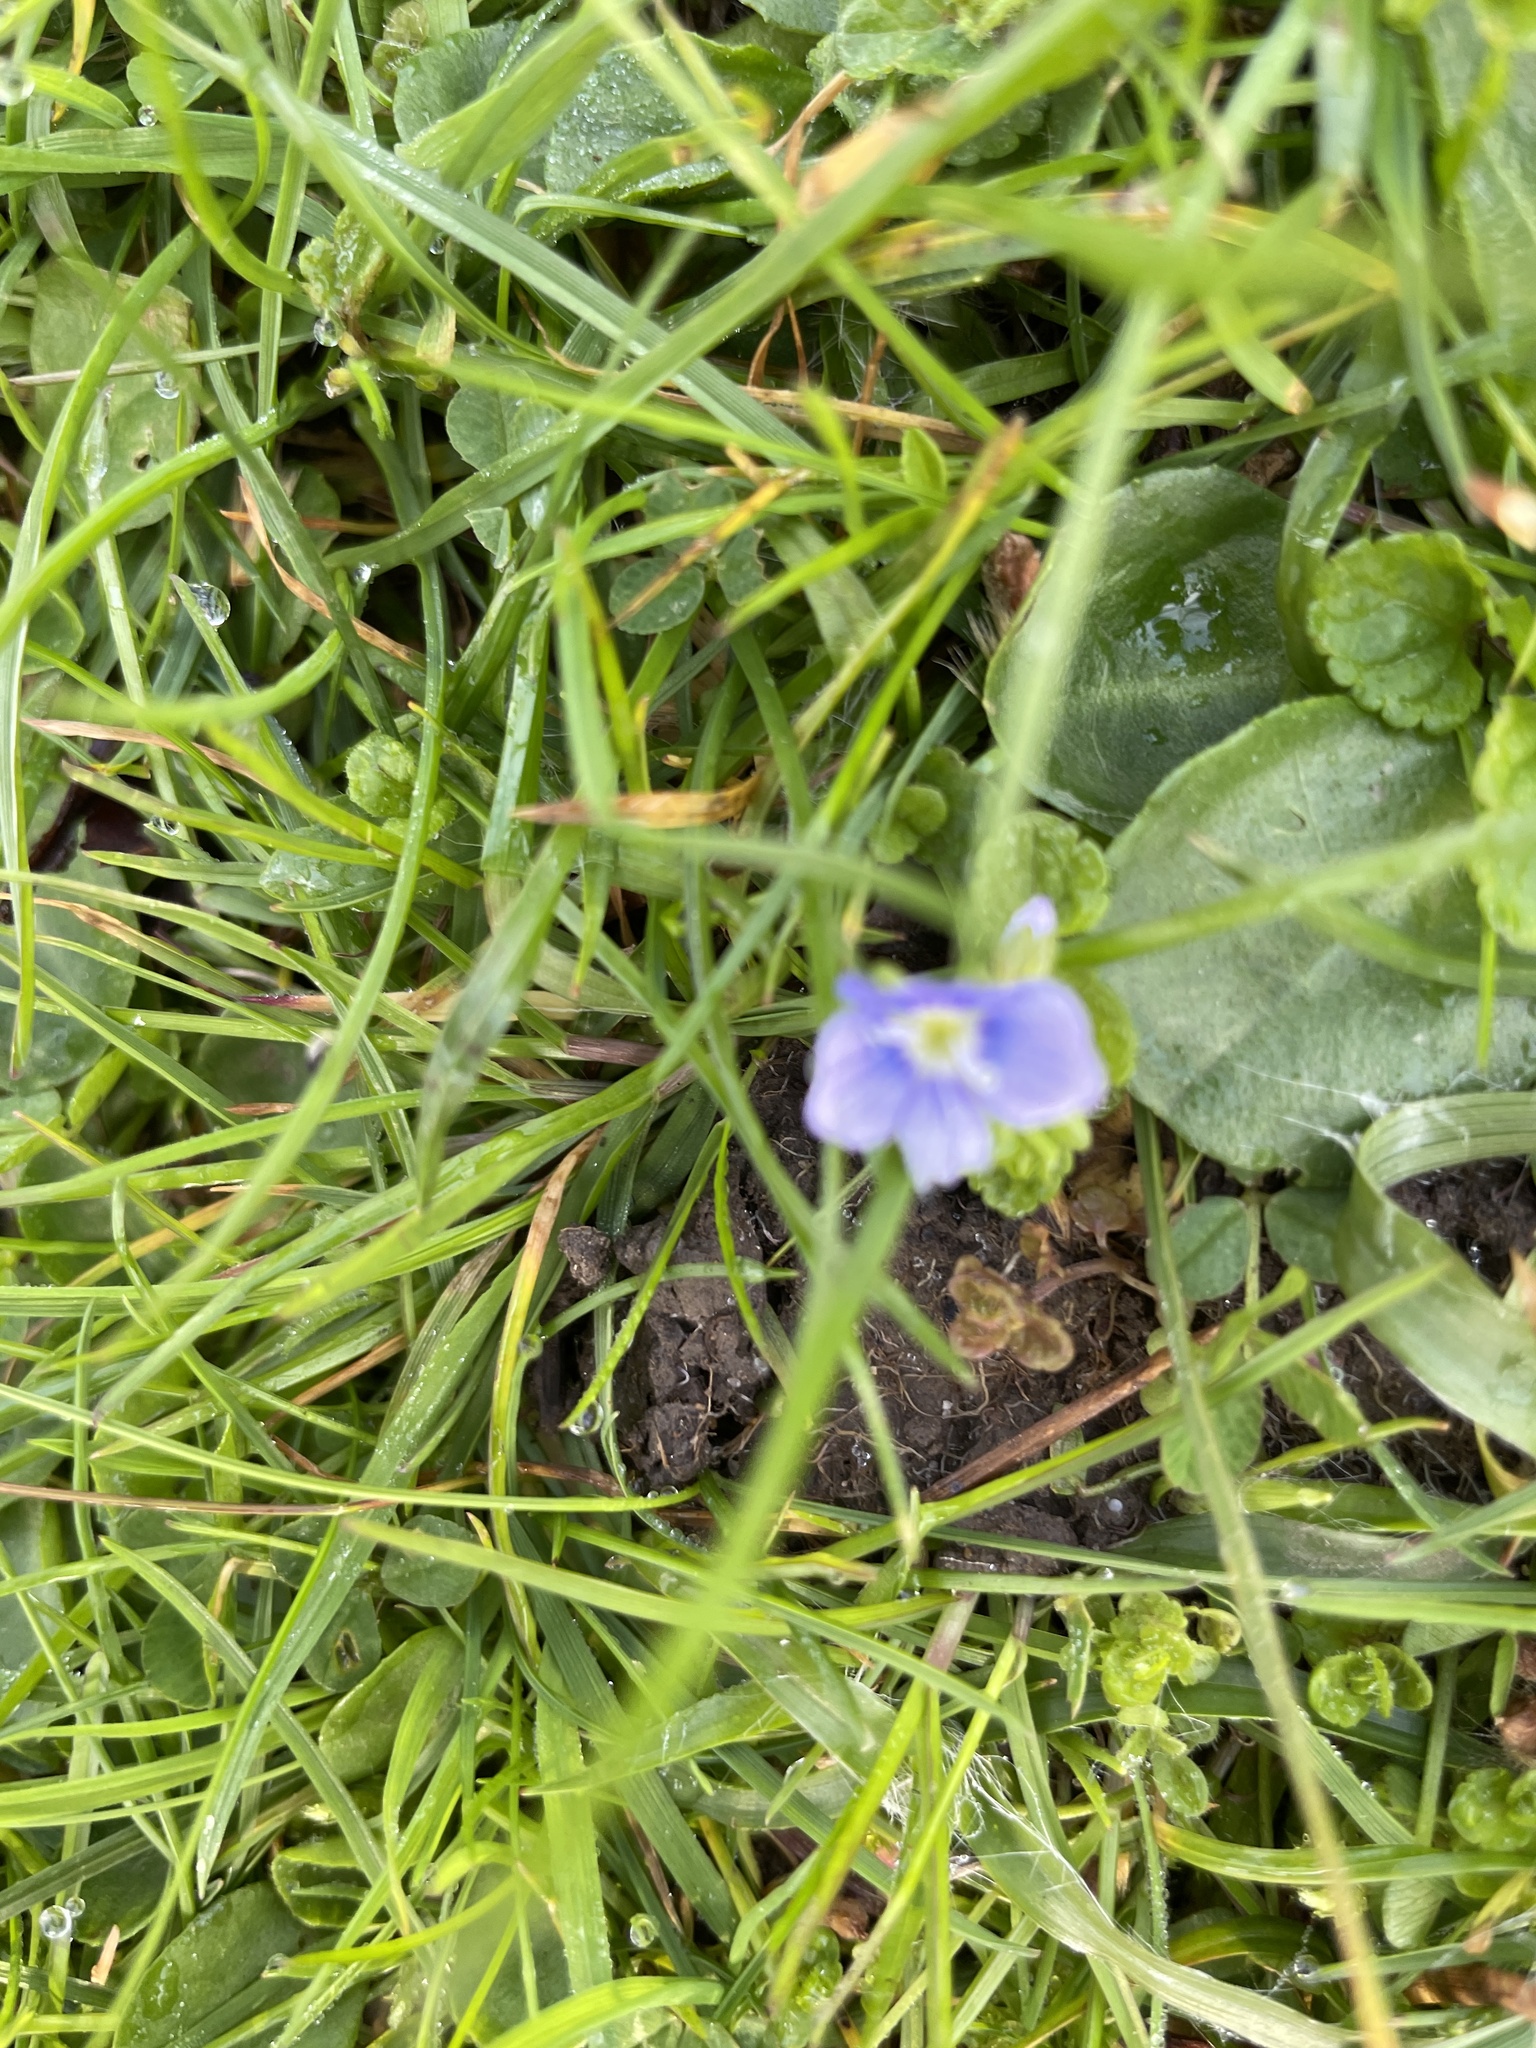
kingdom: Plantae
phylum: Tracheophyta
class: Magnoliopsida
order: Lamiales
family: Plantaginaceae
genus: Veronica
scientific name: Veronica filiformis
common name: Slender speedwell
